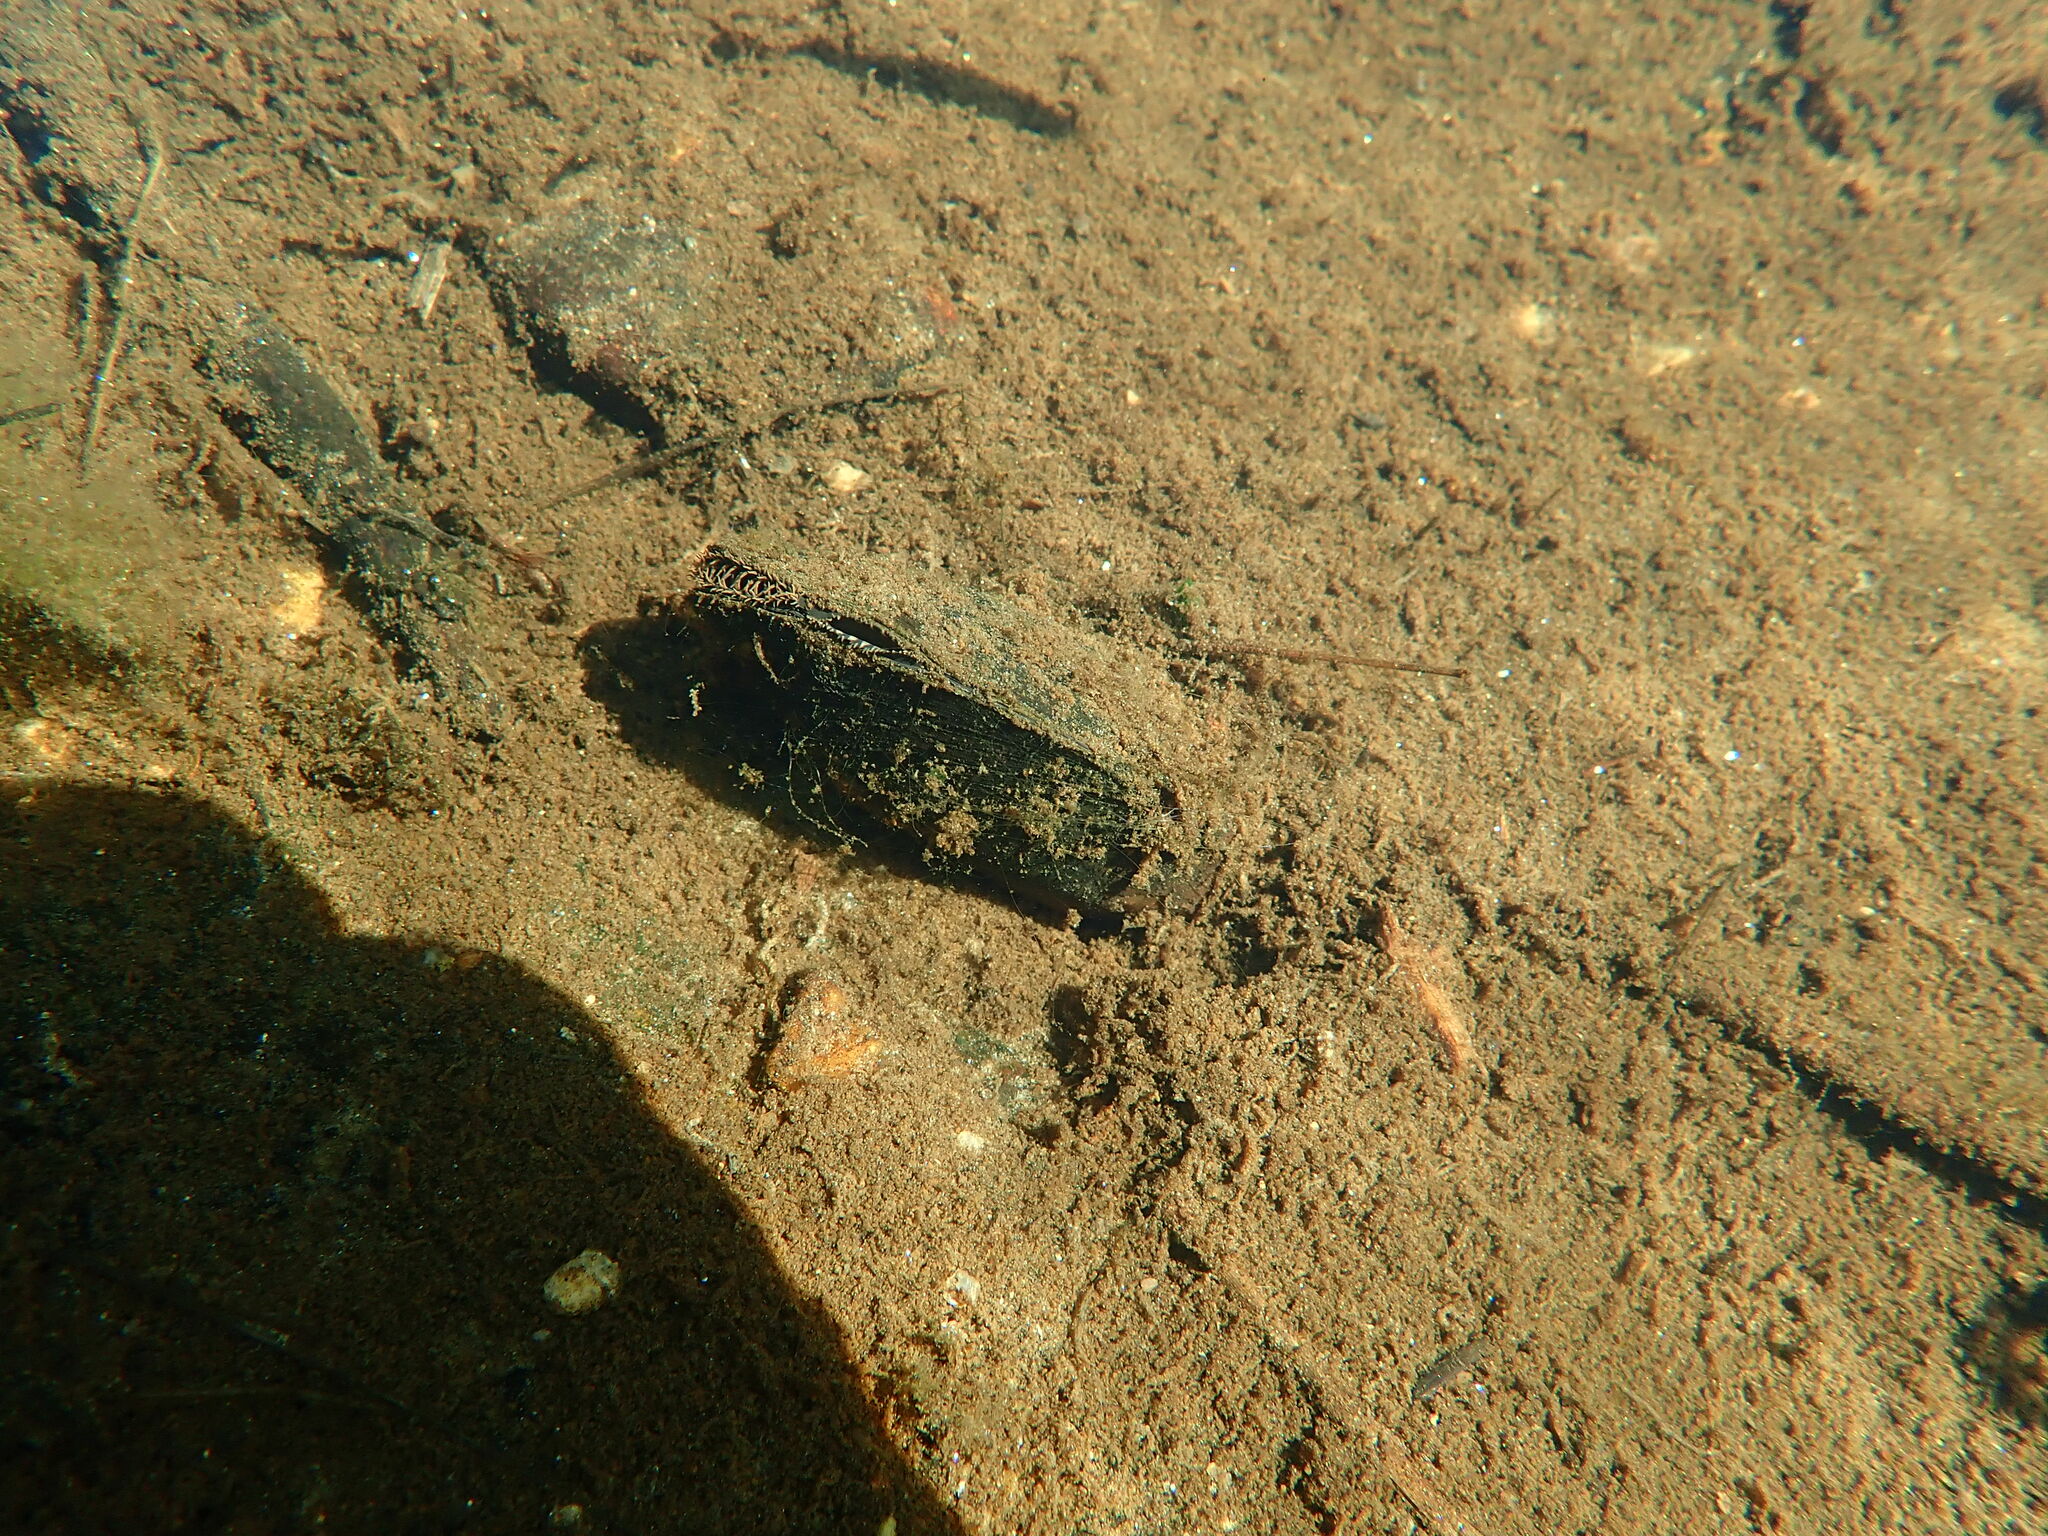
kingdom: Animalia
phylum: Mollusca
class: Bivalvia
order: Unionida
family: Unionidae
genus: Elliptio
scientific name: Elliptio complanata
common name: Eastern elliptio
